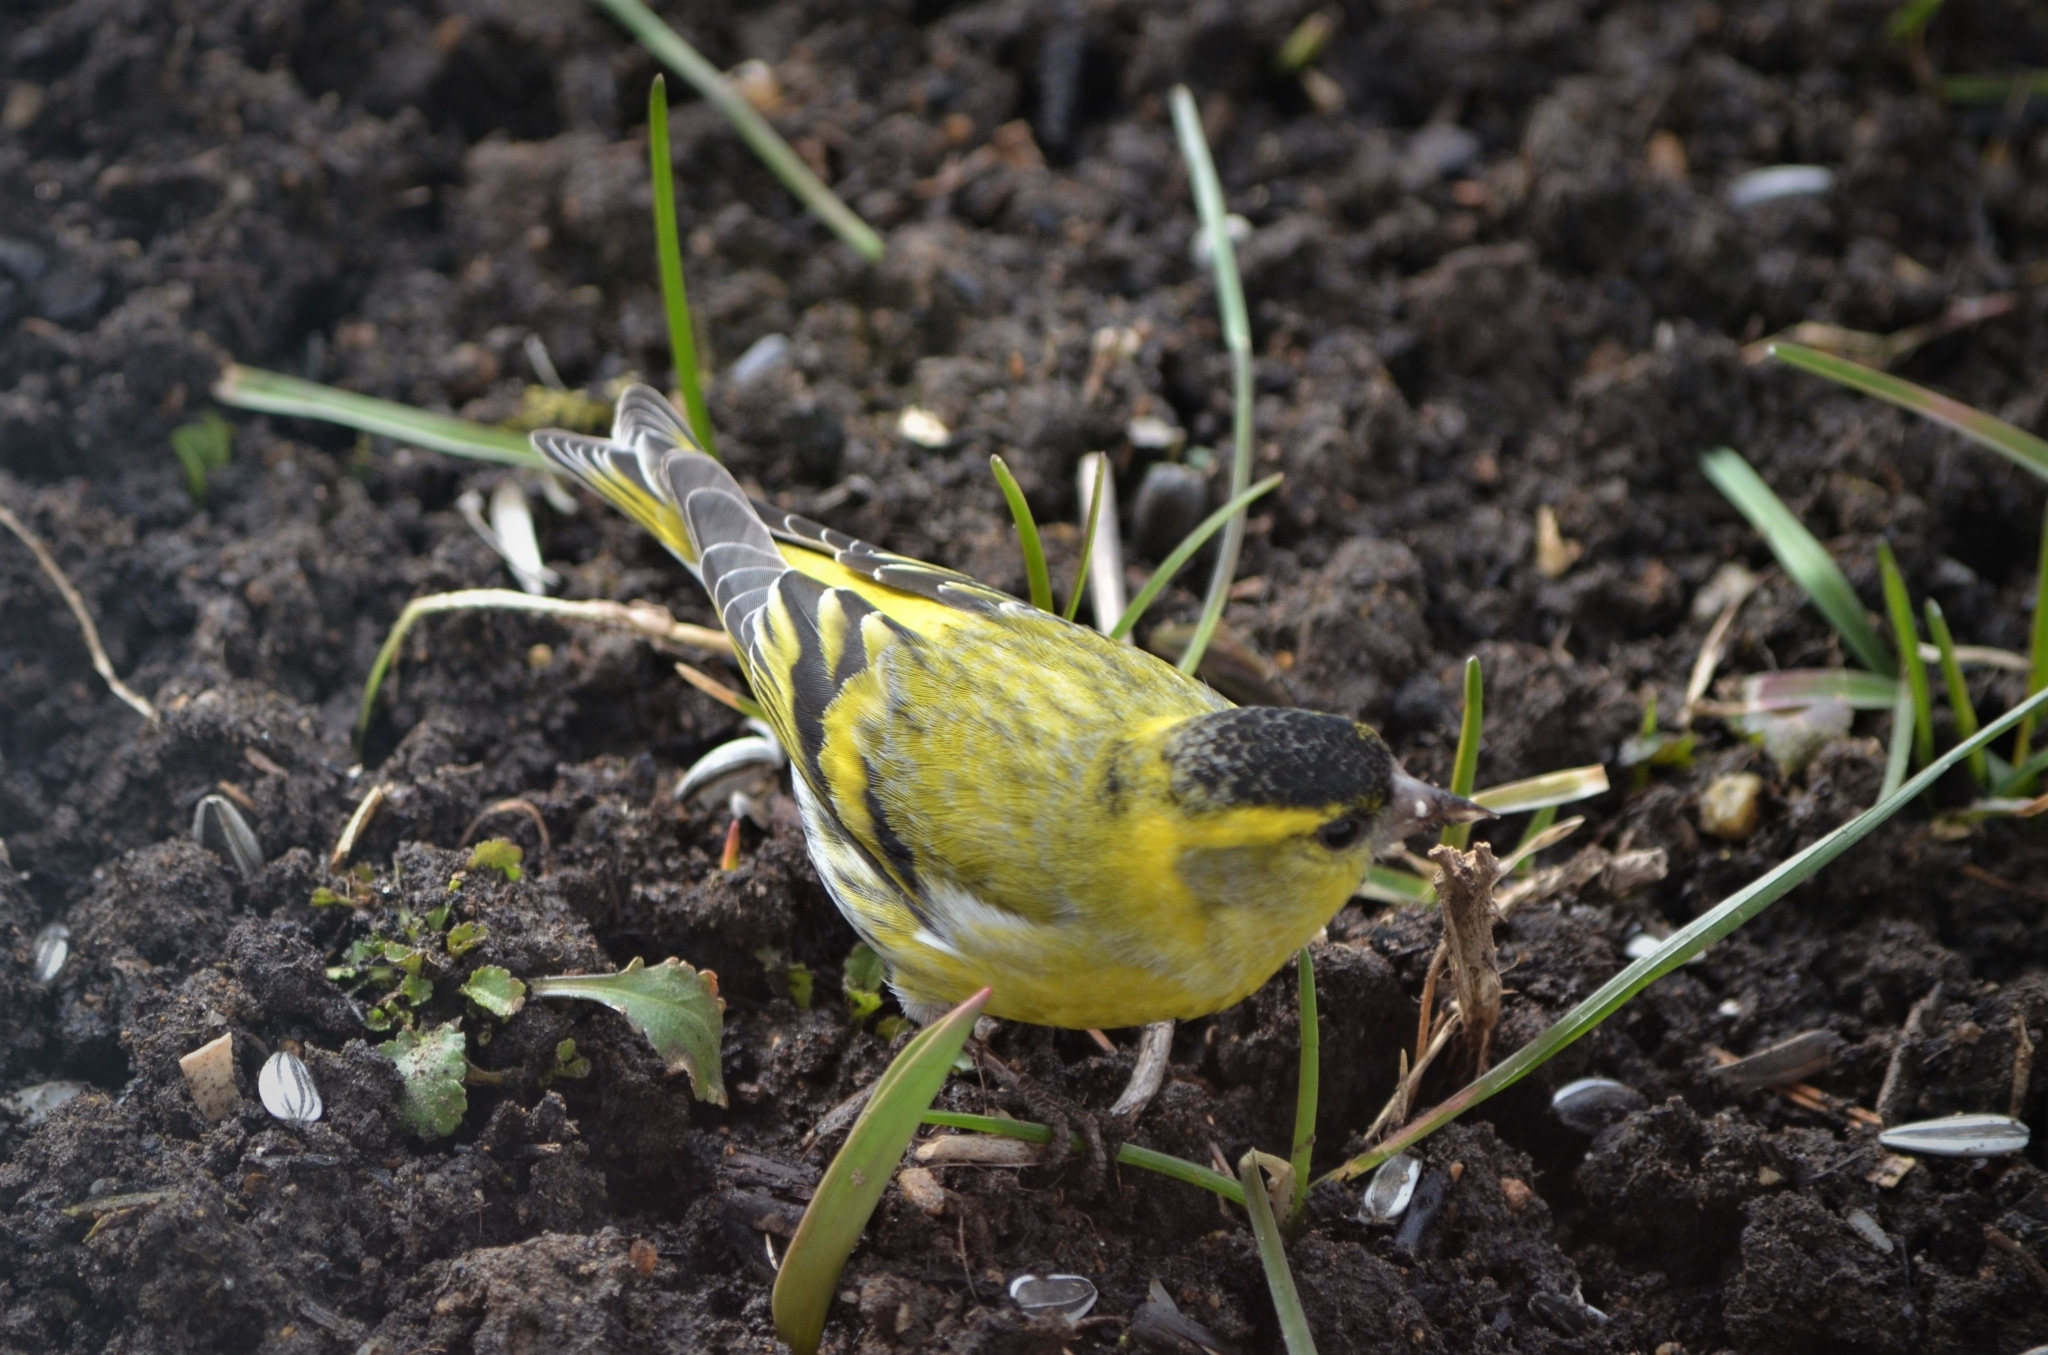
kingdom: Animalia
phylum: Chordata
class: Aves
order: Passeriformes
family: Fringillidae
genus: Spinus
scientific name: Spinus spinus
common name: Eurasian siskin
